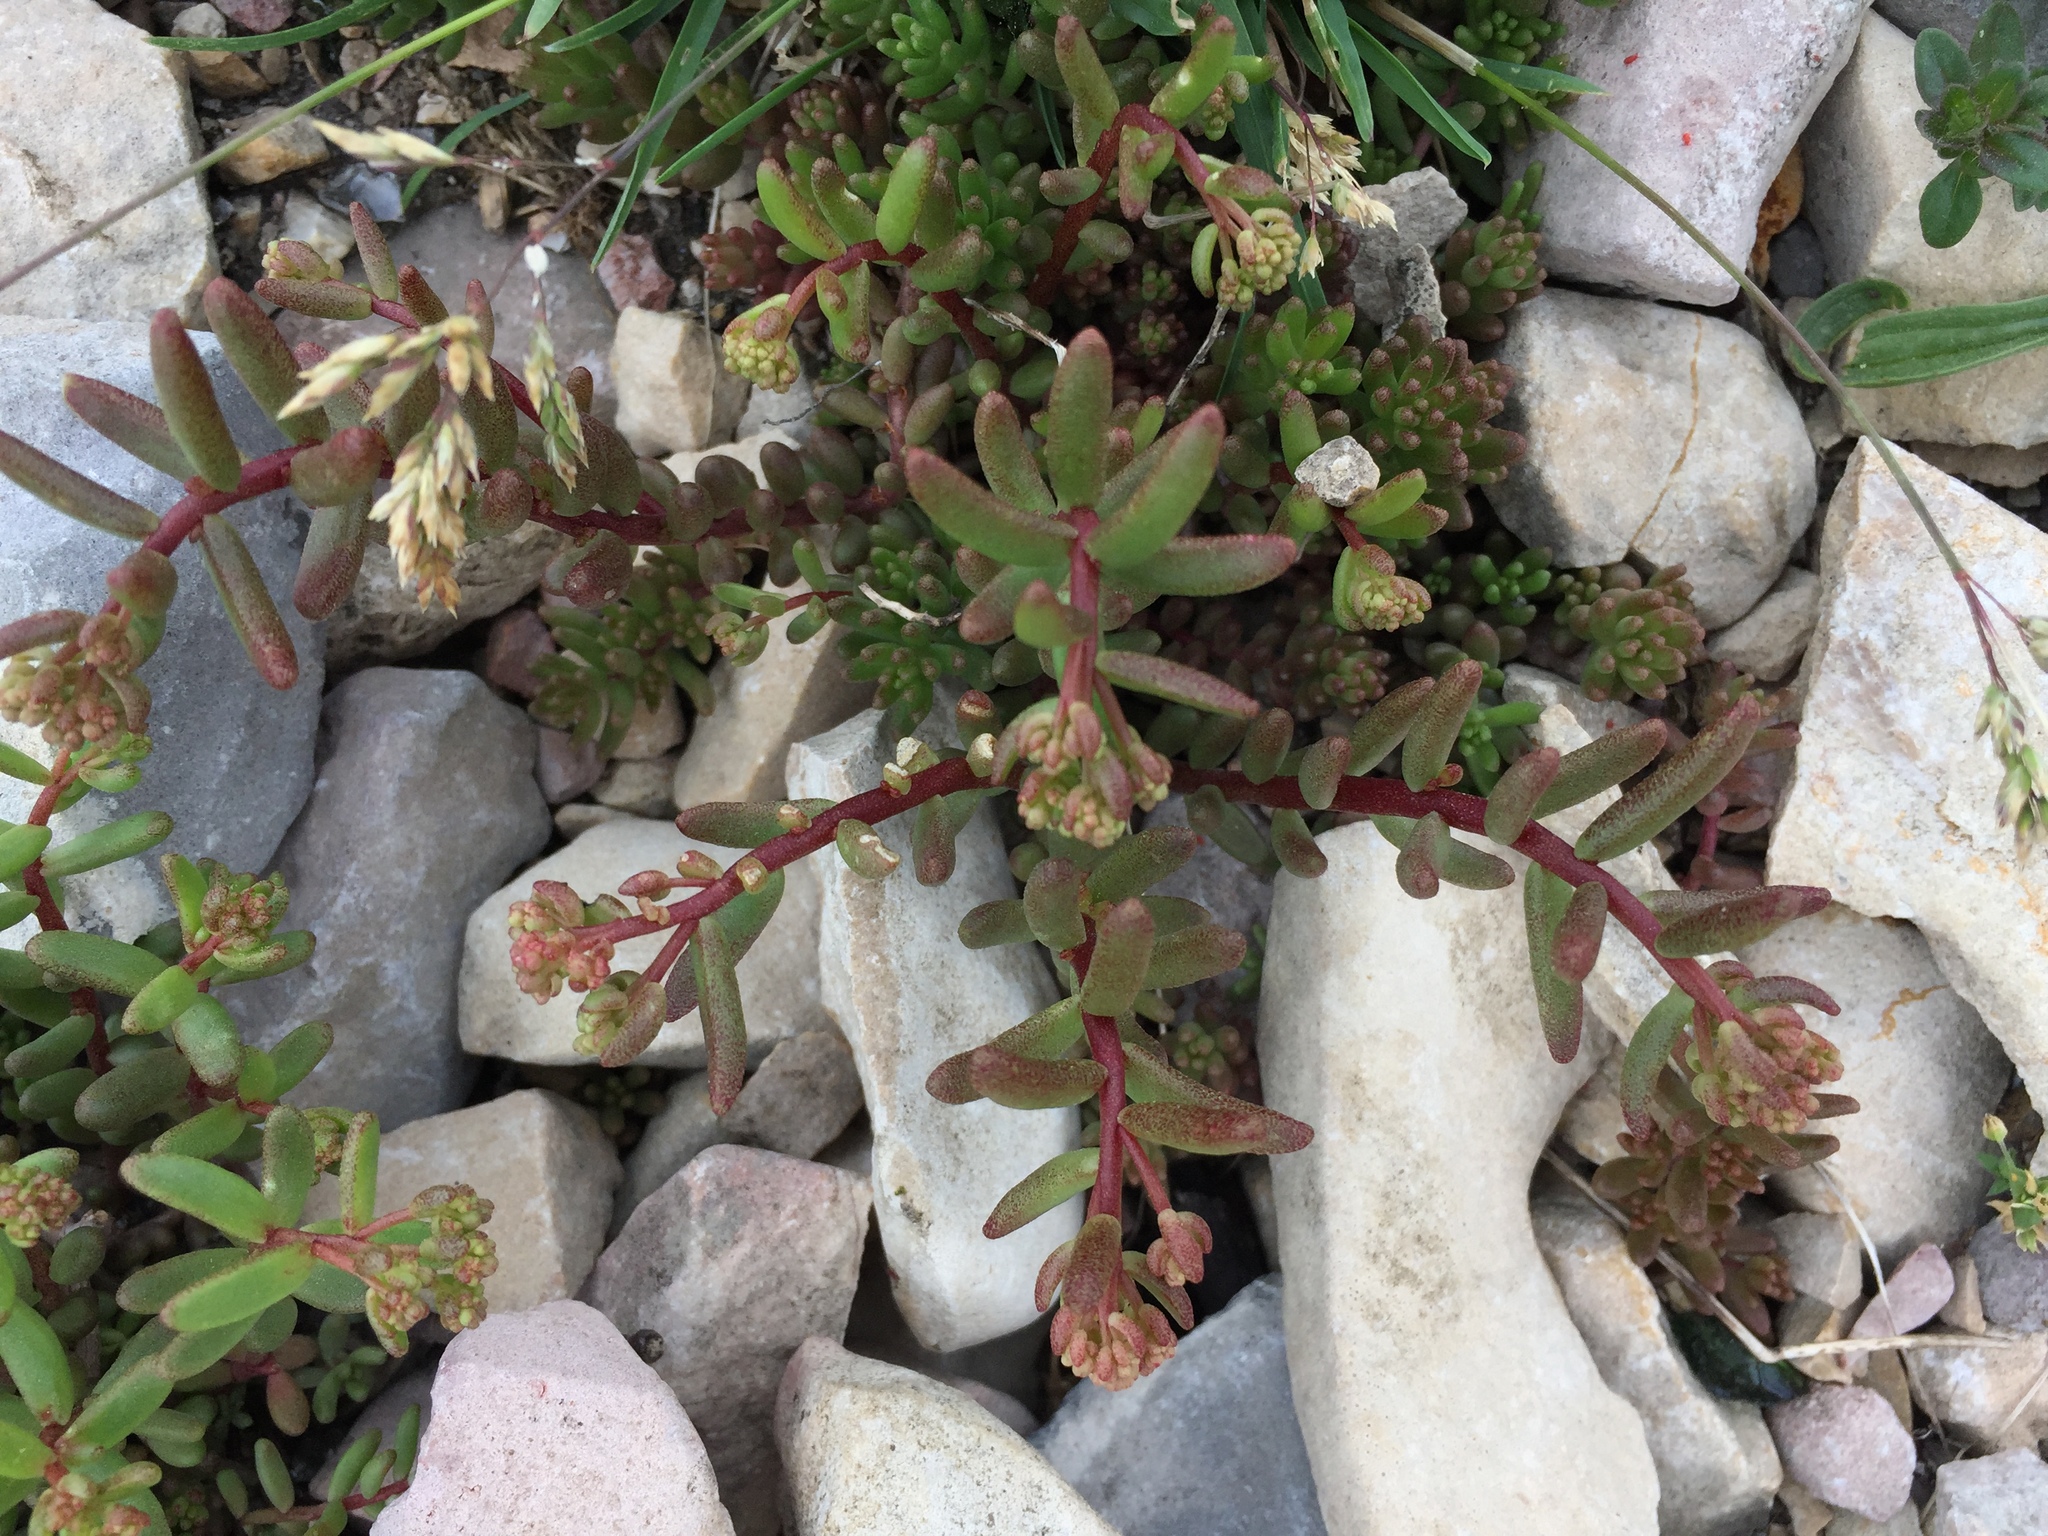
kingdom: Plantae
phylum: Tracheophyta
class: Magnoliopsida
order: Saxifragales
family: Crassulaceae
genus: Sedum
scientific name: Sedum album
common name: White stonecrop
